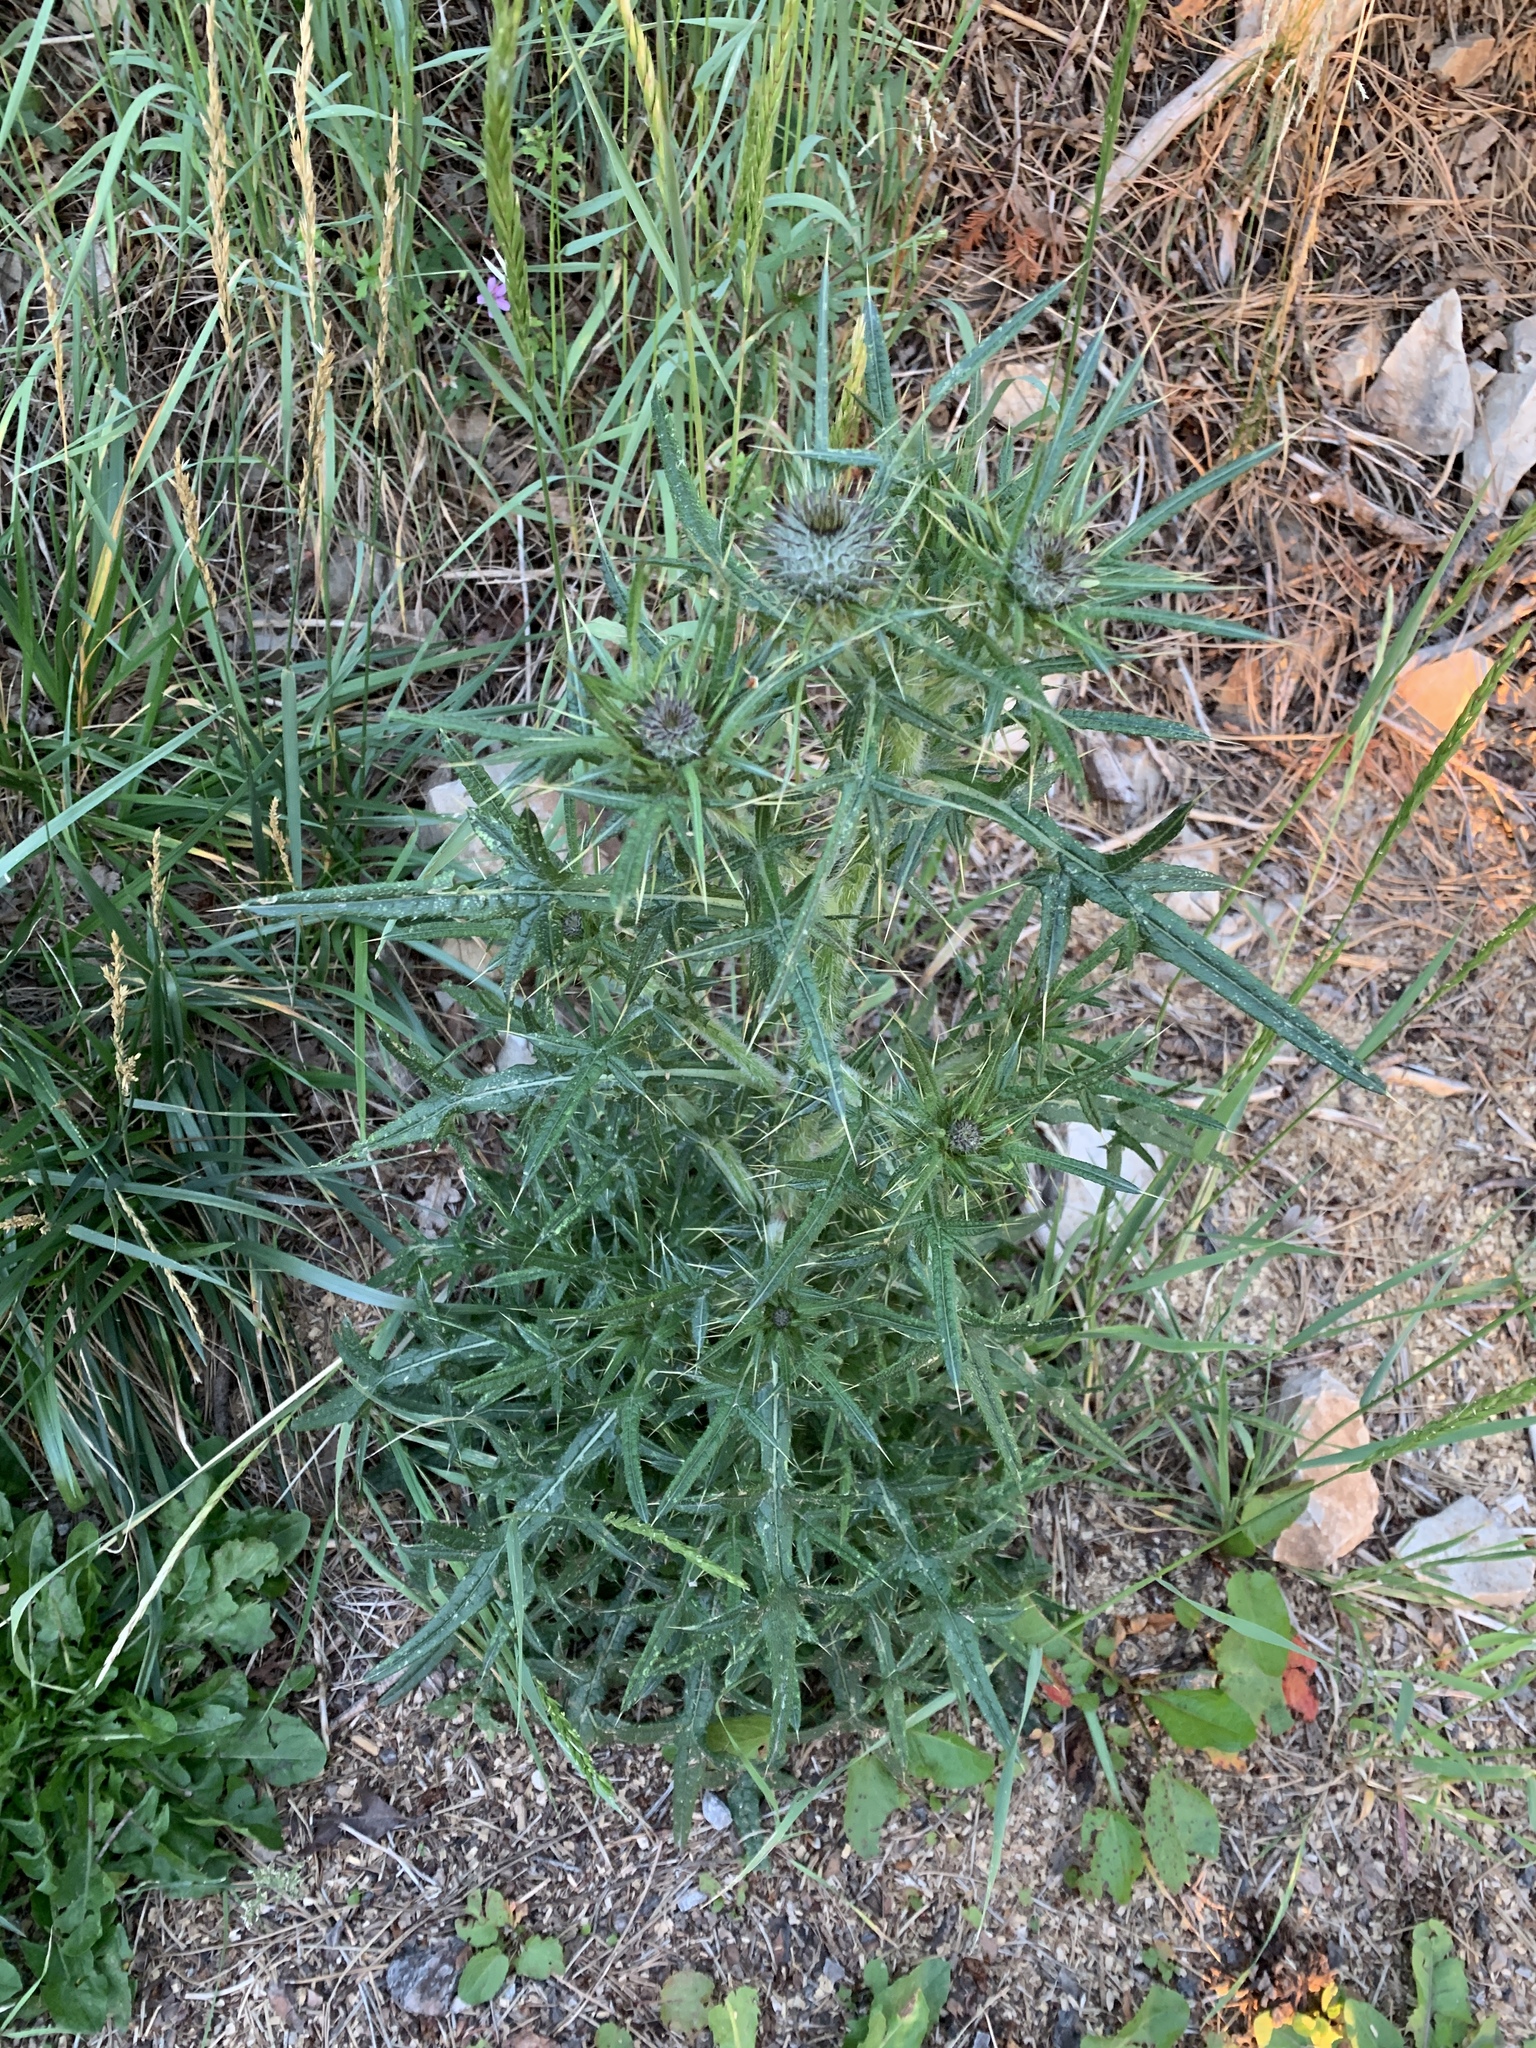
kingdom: Plantae
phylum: Tracheophyta
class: Magnoliopsida
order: Asterales
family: Asteraceae
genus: Cirsium
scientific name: Cirsium vulgare
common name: Bull thistle
